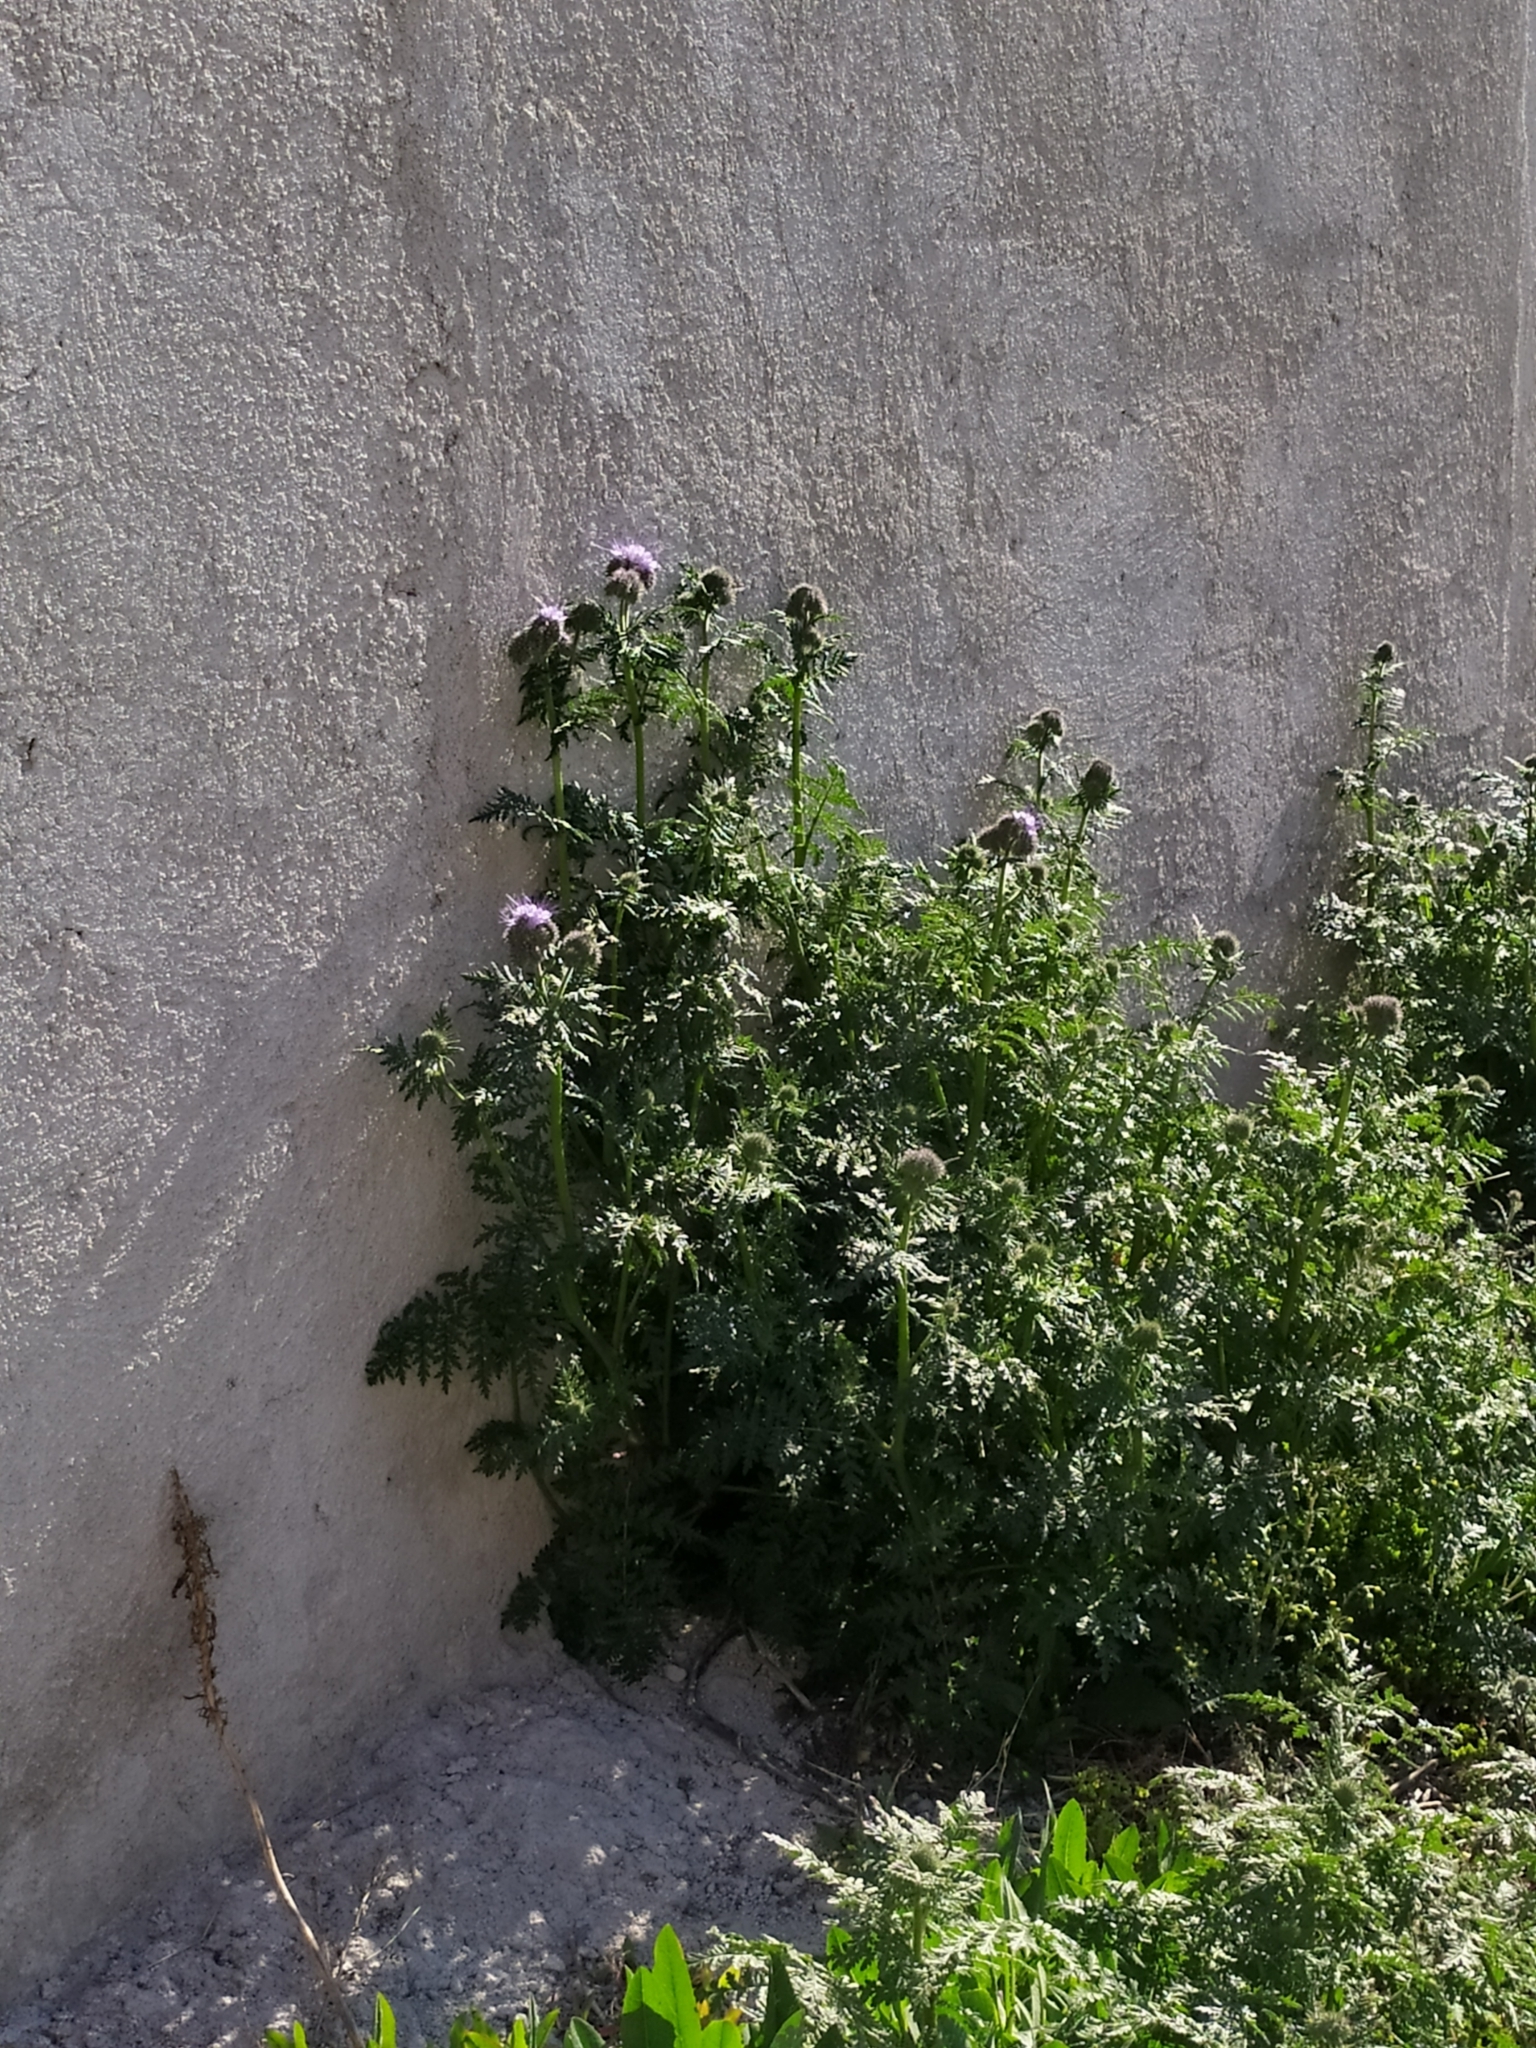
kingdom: Plantae
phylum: Tracheophyta
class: Magnoliopsida
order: Boraginales
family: Hydrophyllaceae
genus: Phacelia
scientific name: Phacelia tanacetifolia
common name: Phacelia
